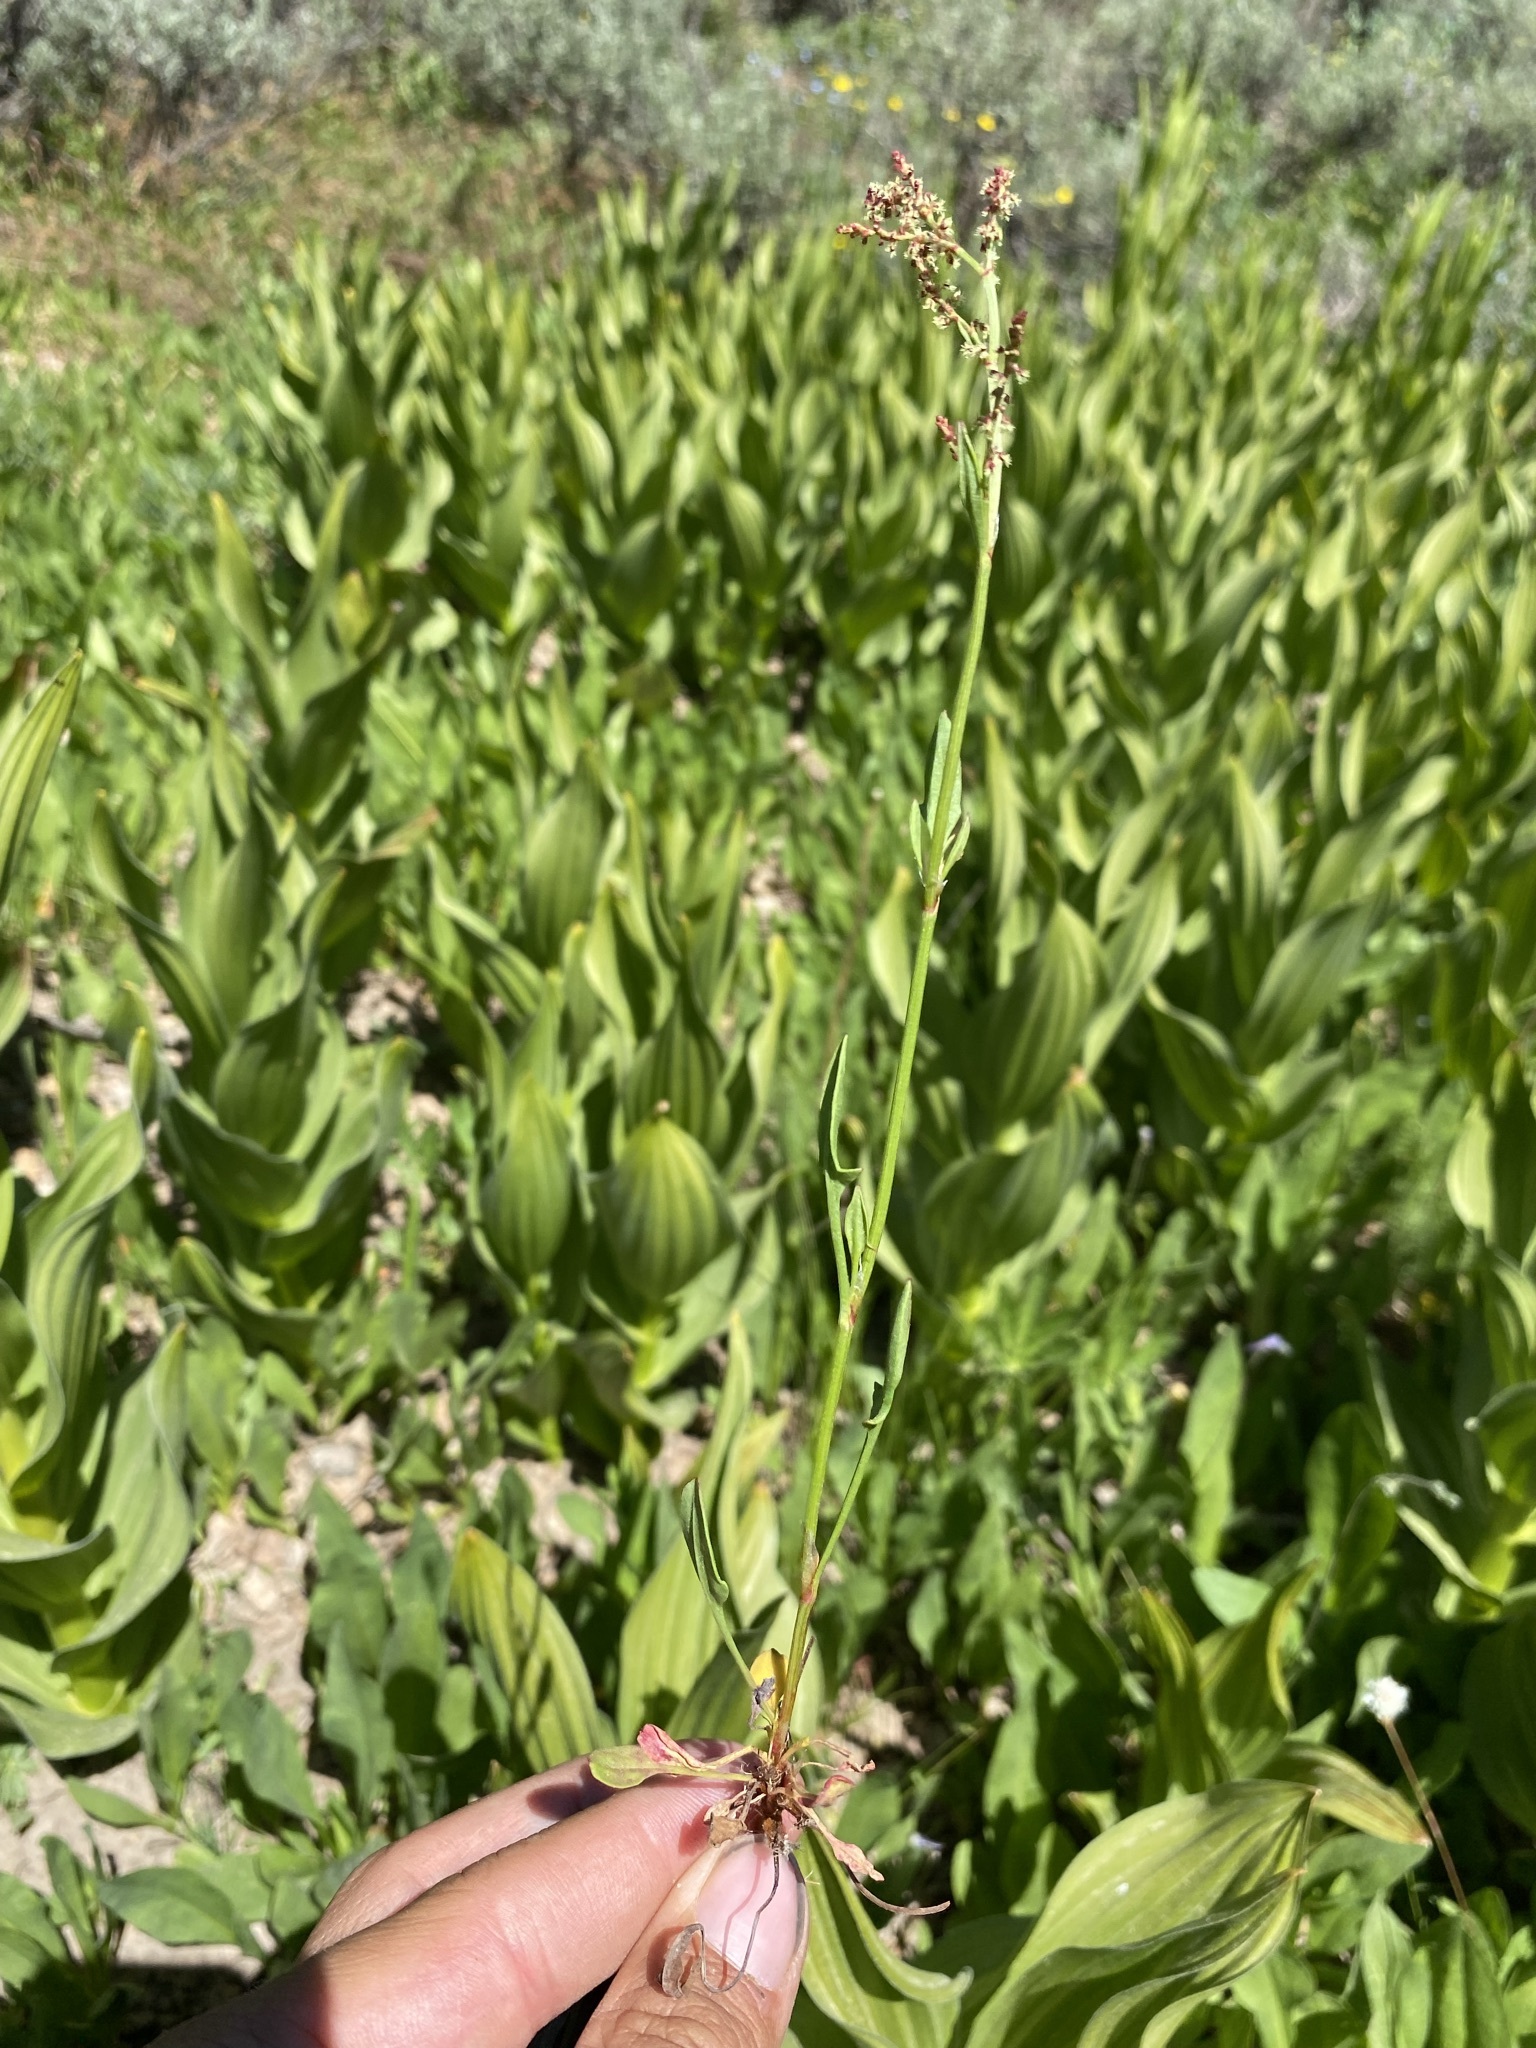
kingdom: Plantae
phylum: Tracheophyta
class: Magnoliopsida
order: Caryophyllales
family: Polygonaceae
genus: Rumex
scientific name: Rumex acetosella
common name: Common sheep sorrel
